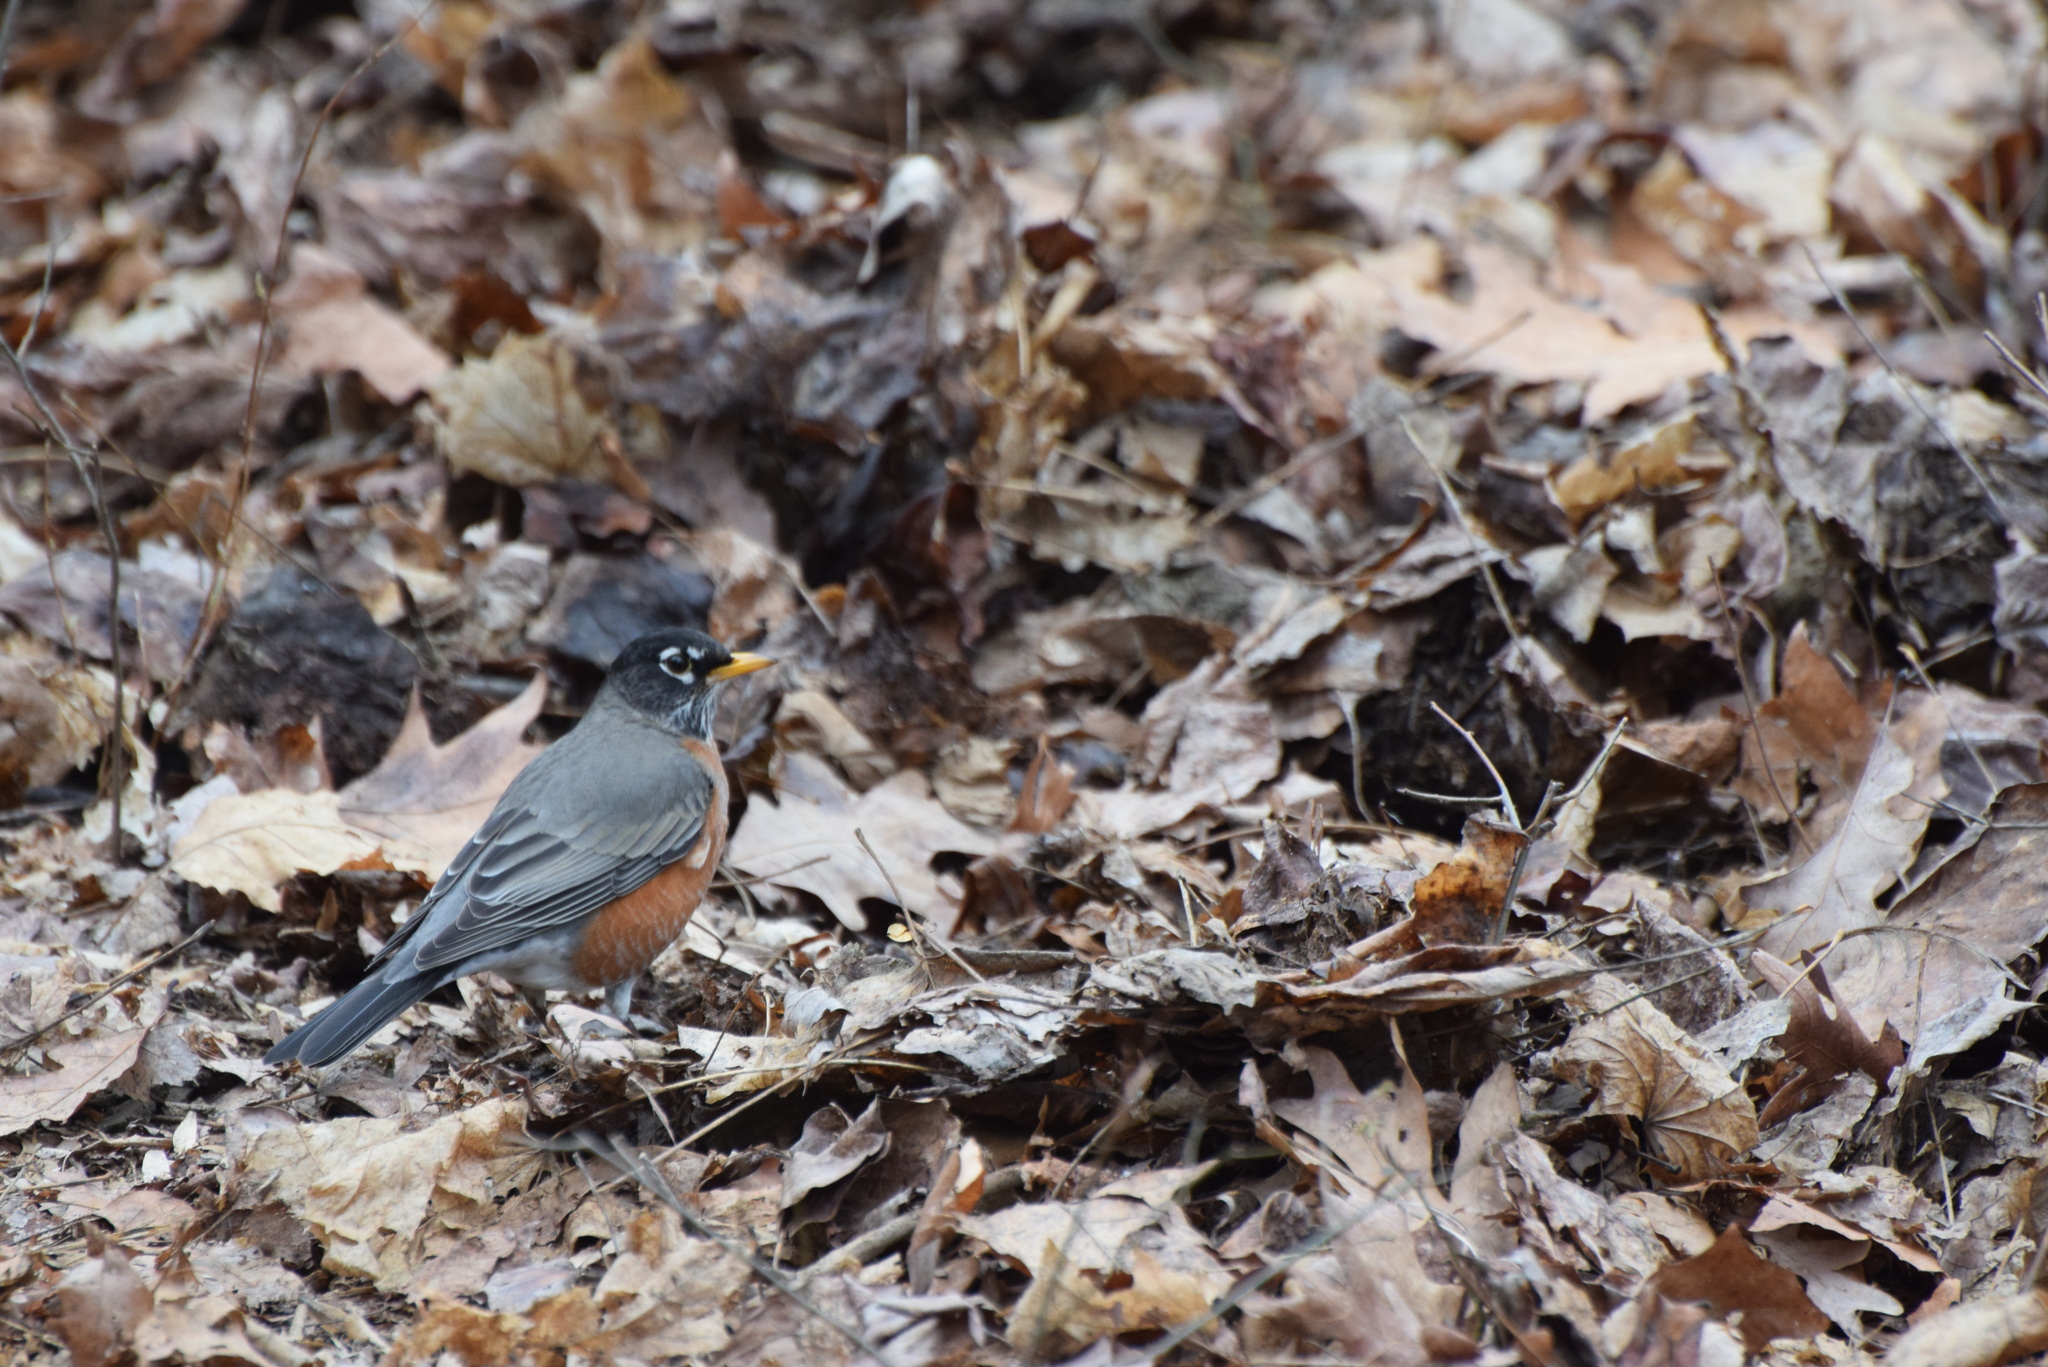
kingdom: Animalia
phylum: Chordata
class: Aves
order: Passeriformes
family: Turdidae
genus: Turdus
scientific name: Turdus migratorius
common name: American robin
